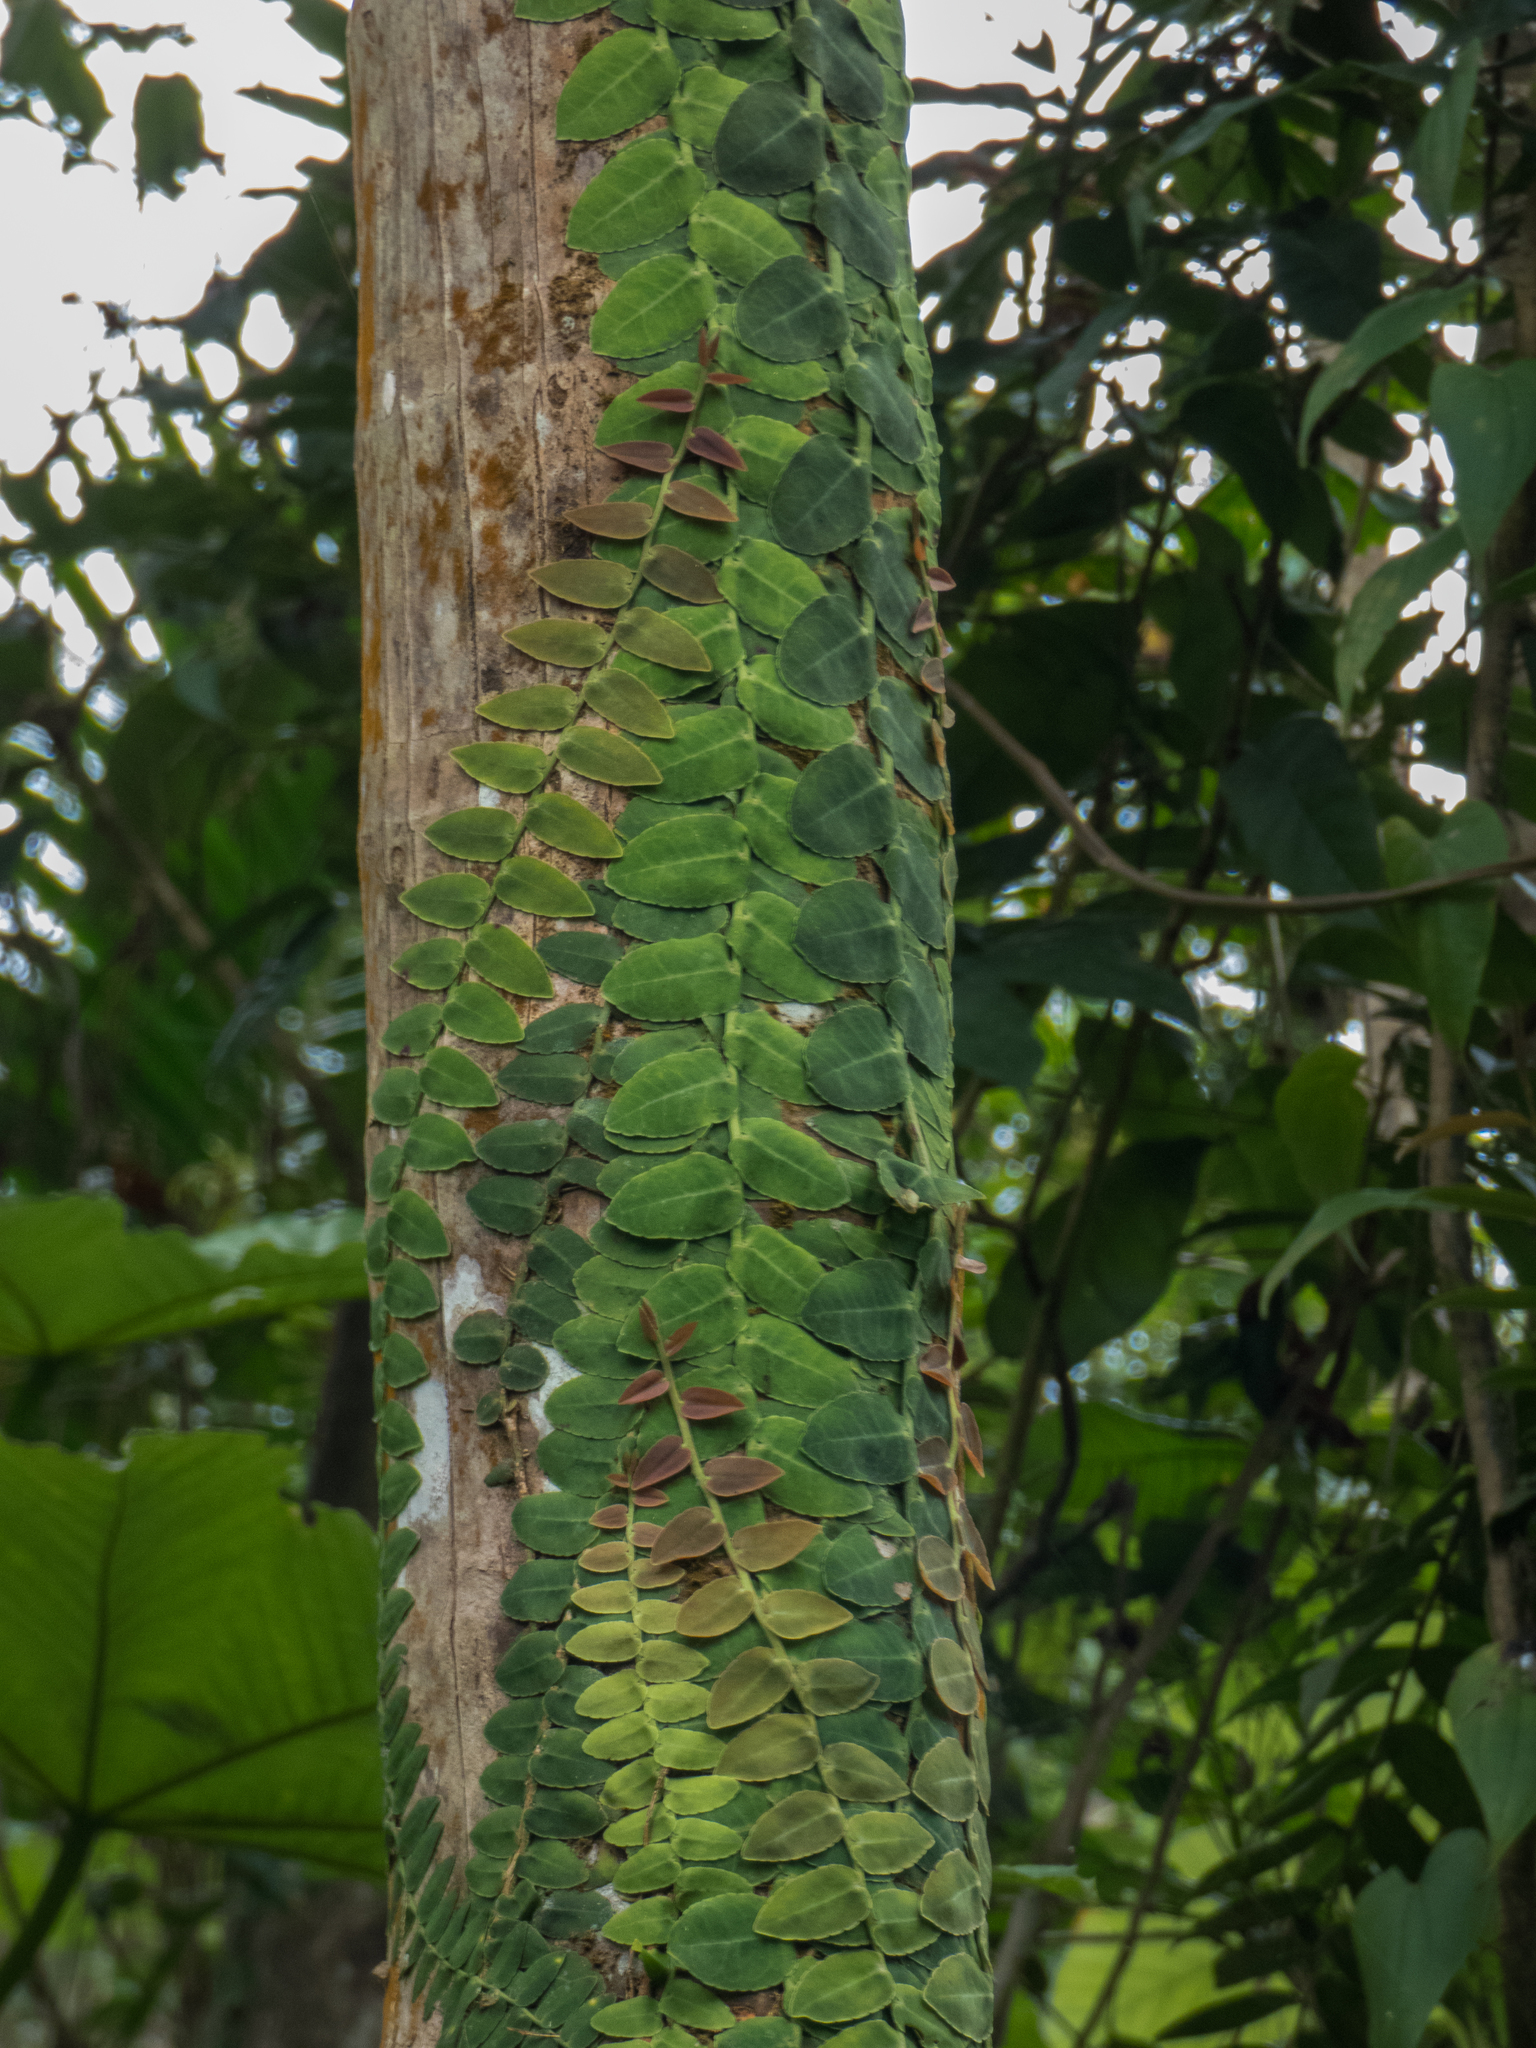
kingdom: Plantae
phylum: Tracheophyta
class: Magnoliopsida
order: Ericales
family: Marcgraviaceae
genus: Marcgravia
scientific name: Marcgravia rectiflora
